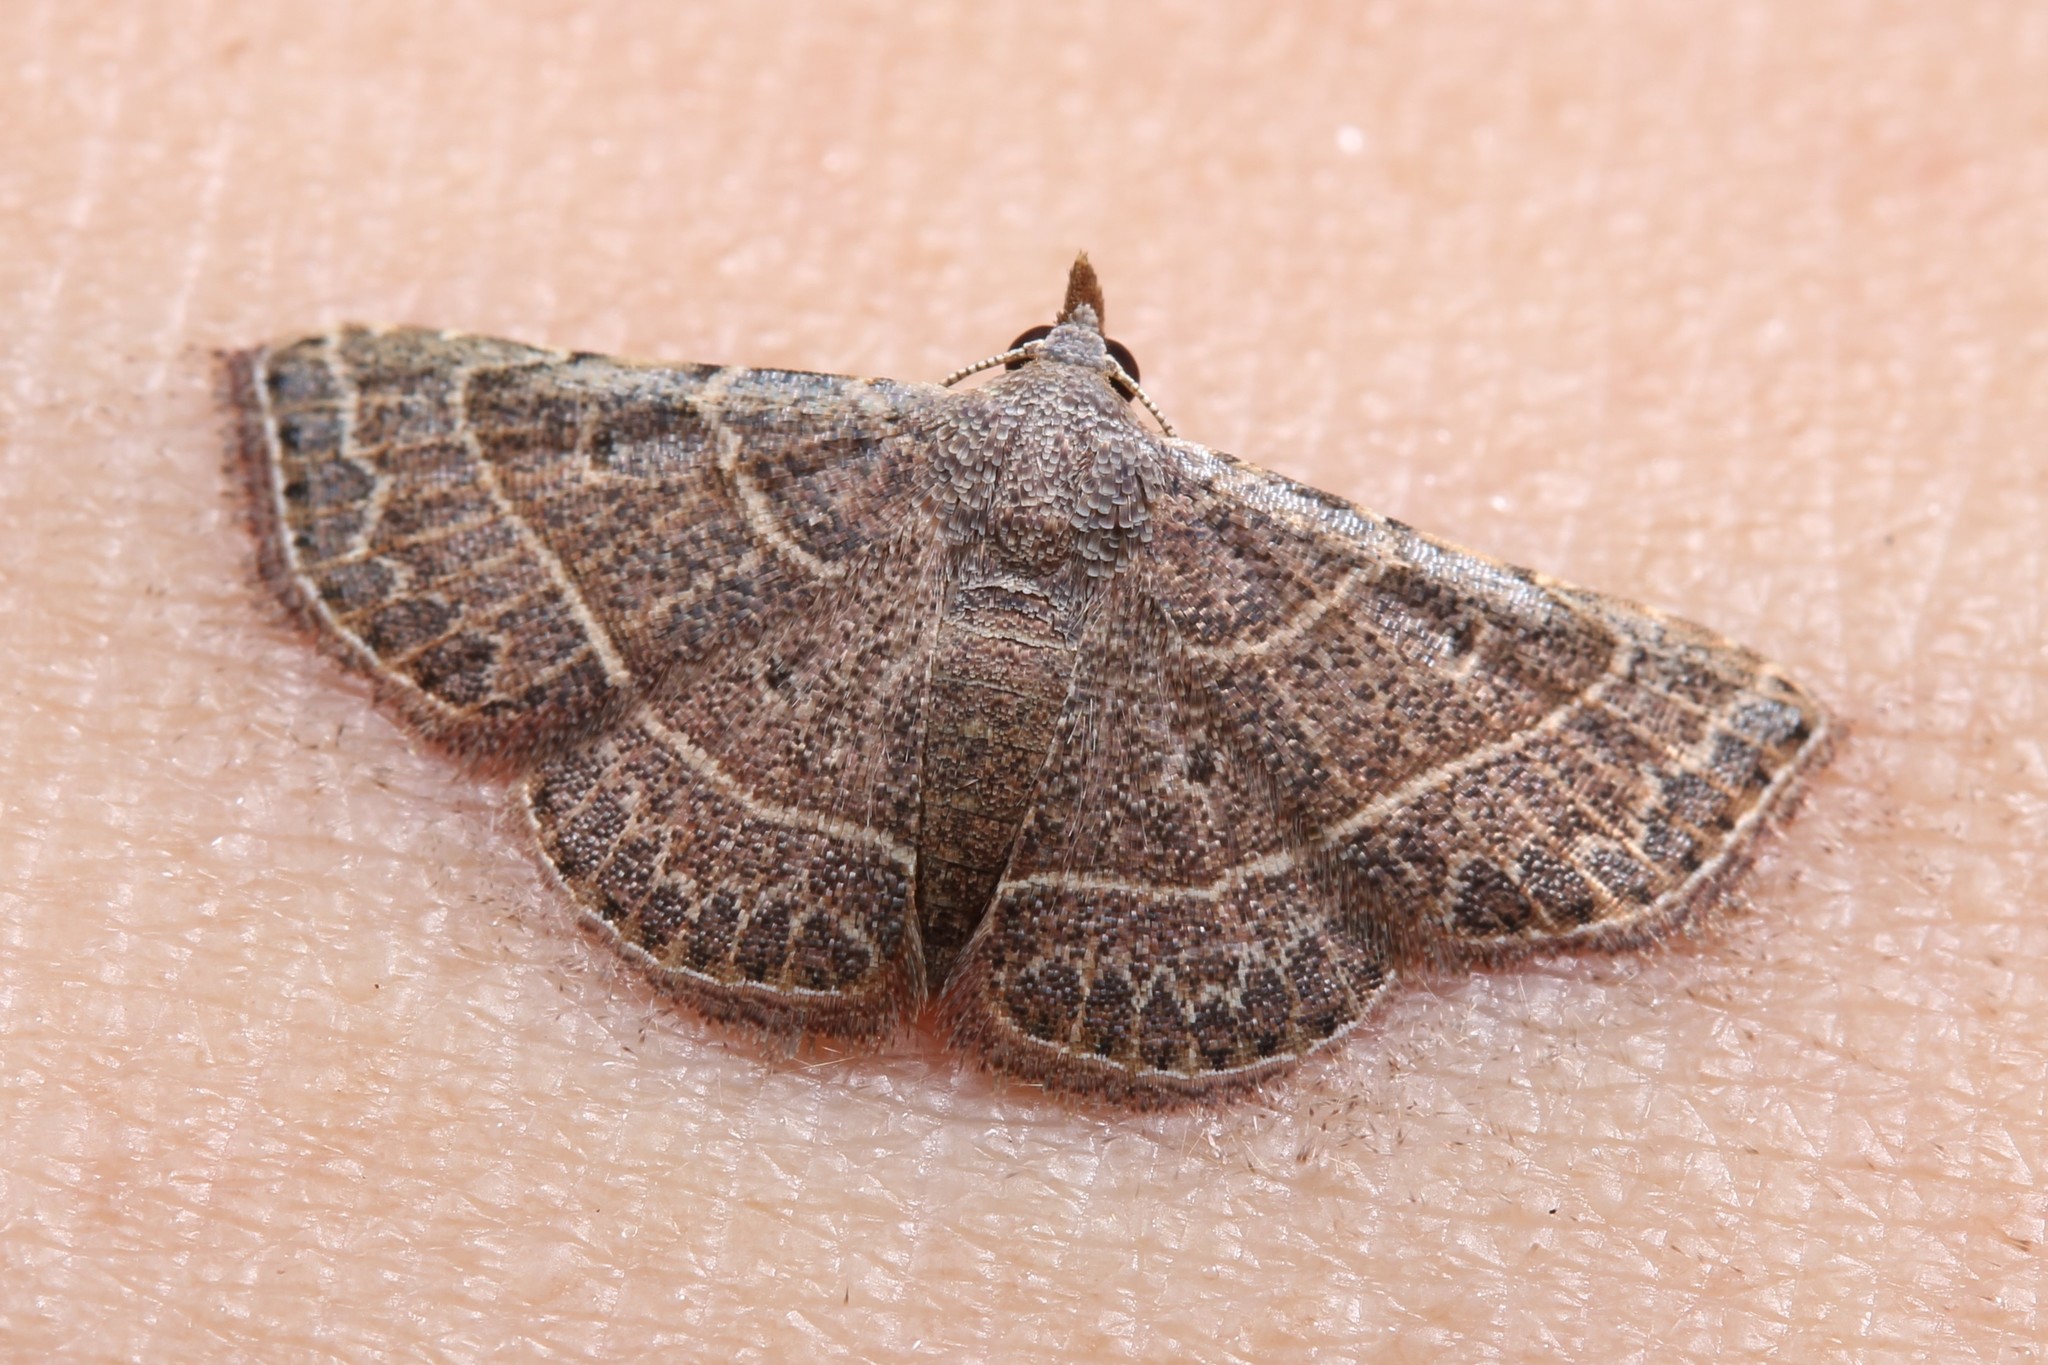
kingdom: Animalia
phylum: Arthropoda
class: Insecta
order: Lepidoptera
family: Erebidae
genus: Corgatha
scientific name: Corgatha dictaria
